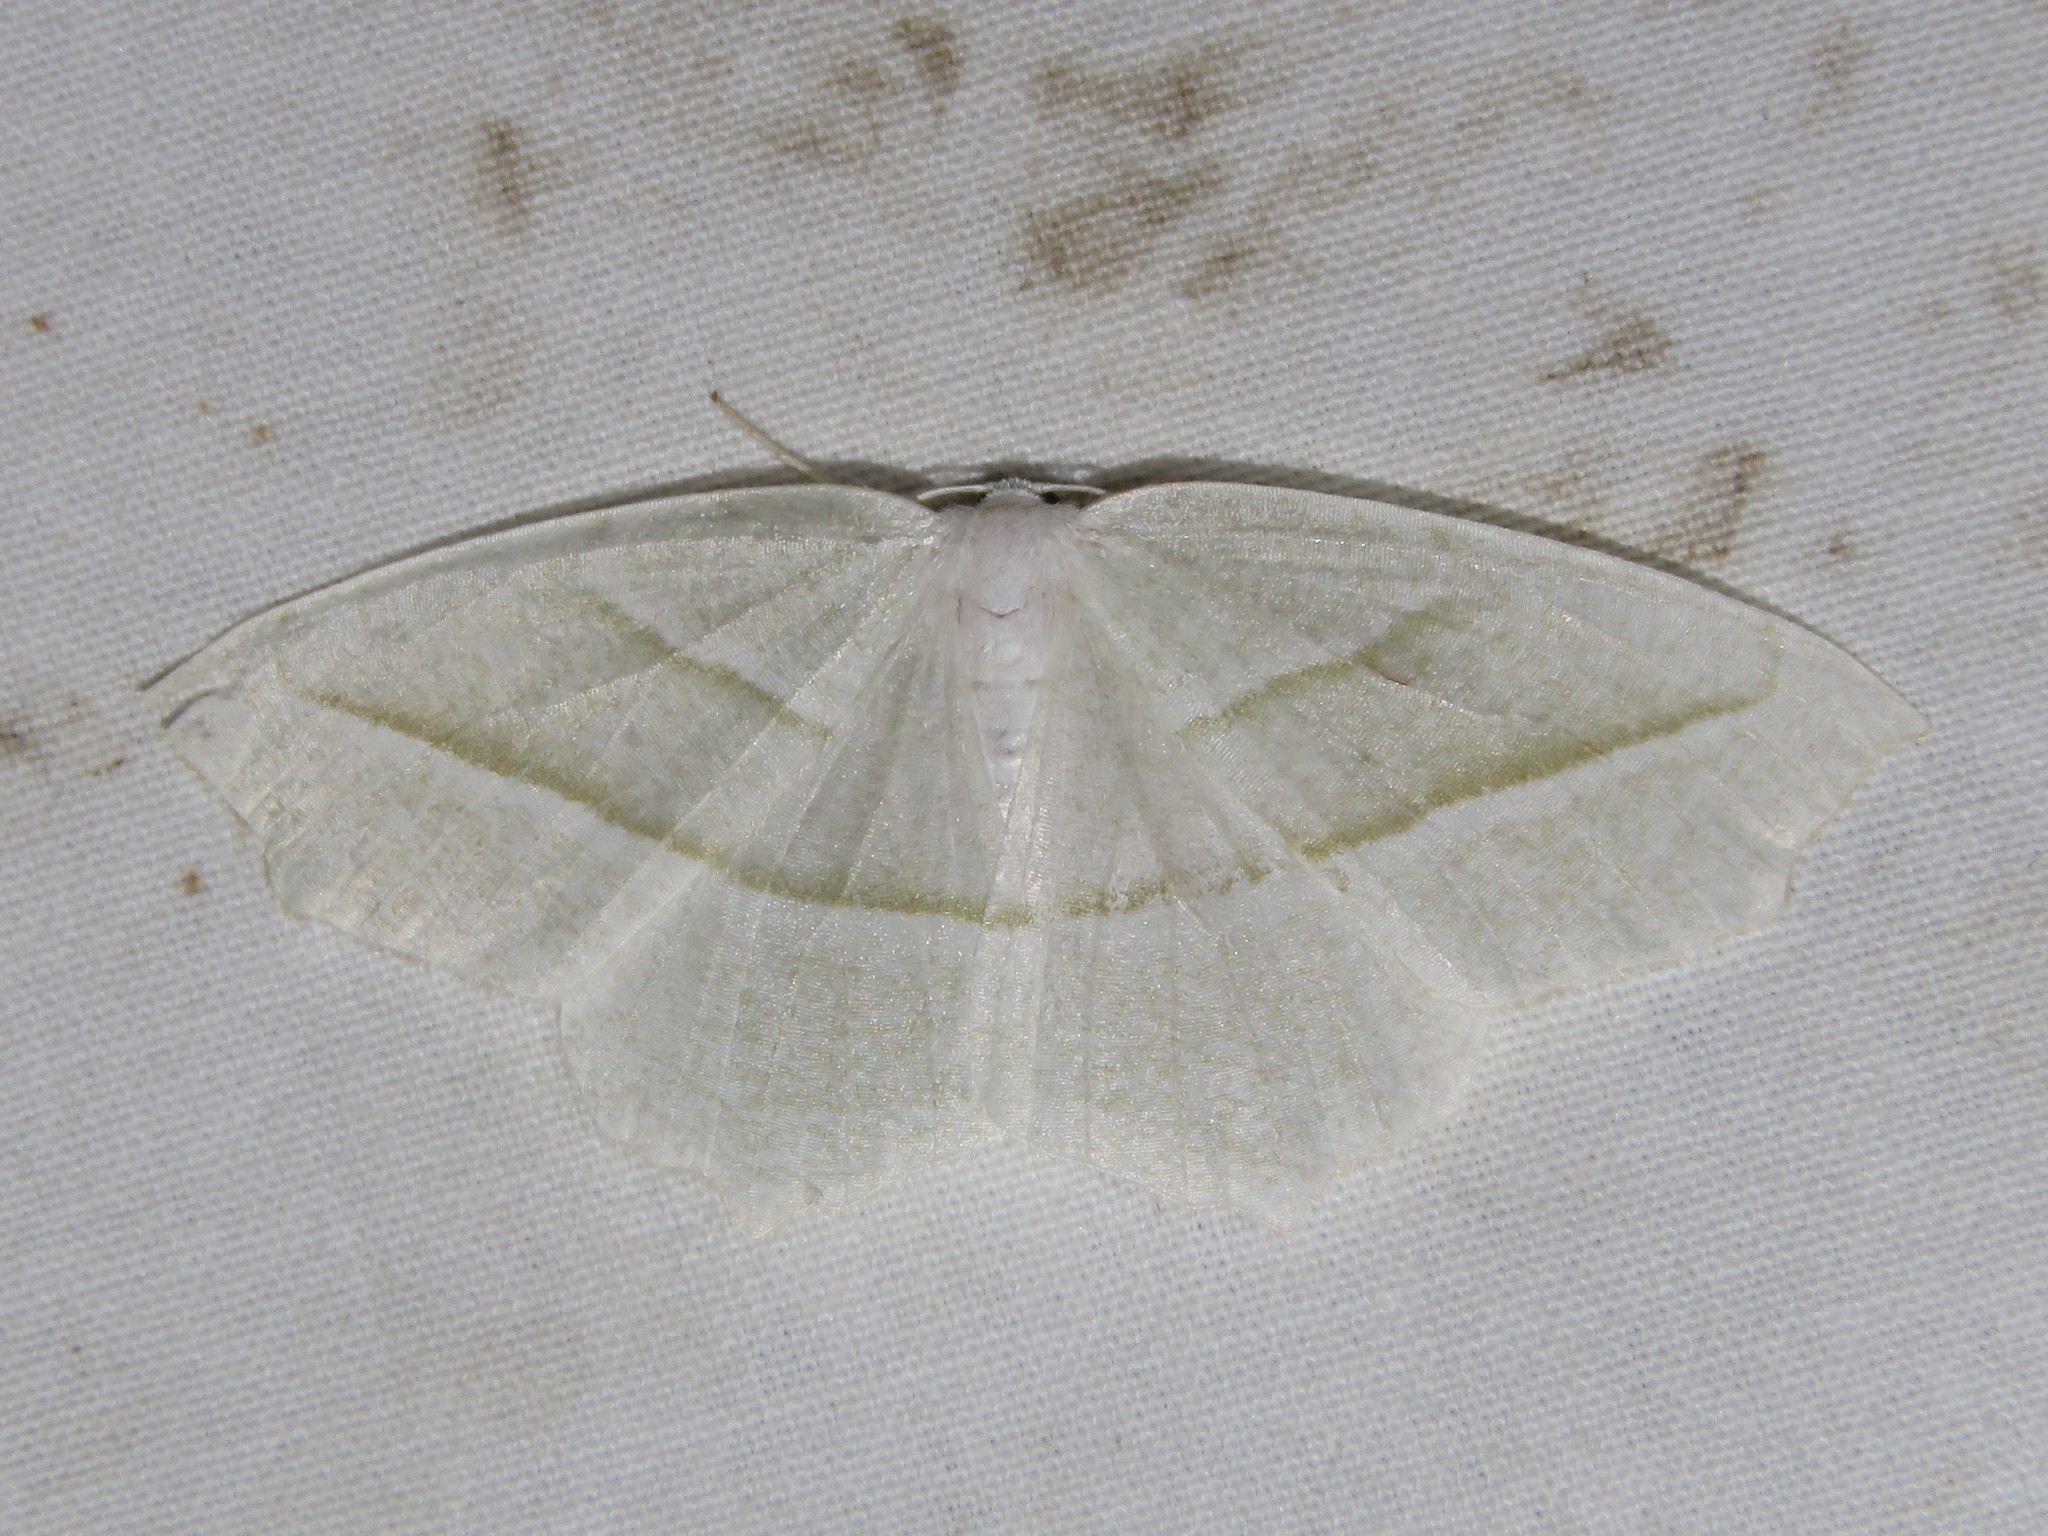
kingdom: Animalia
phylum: Arthropoda
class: Insecta
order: Lepidoptera
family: Geometridae
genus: Campaea
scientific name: Campaea perlata
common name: Fringed looper
